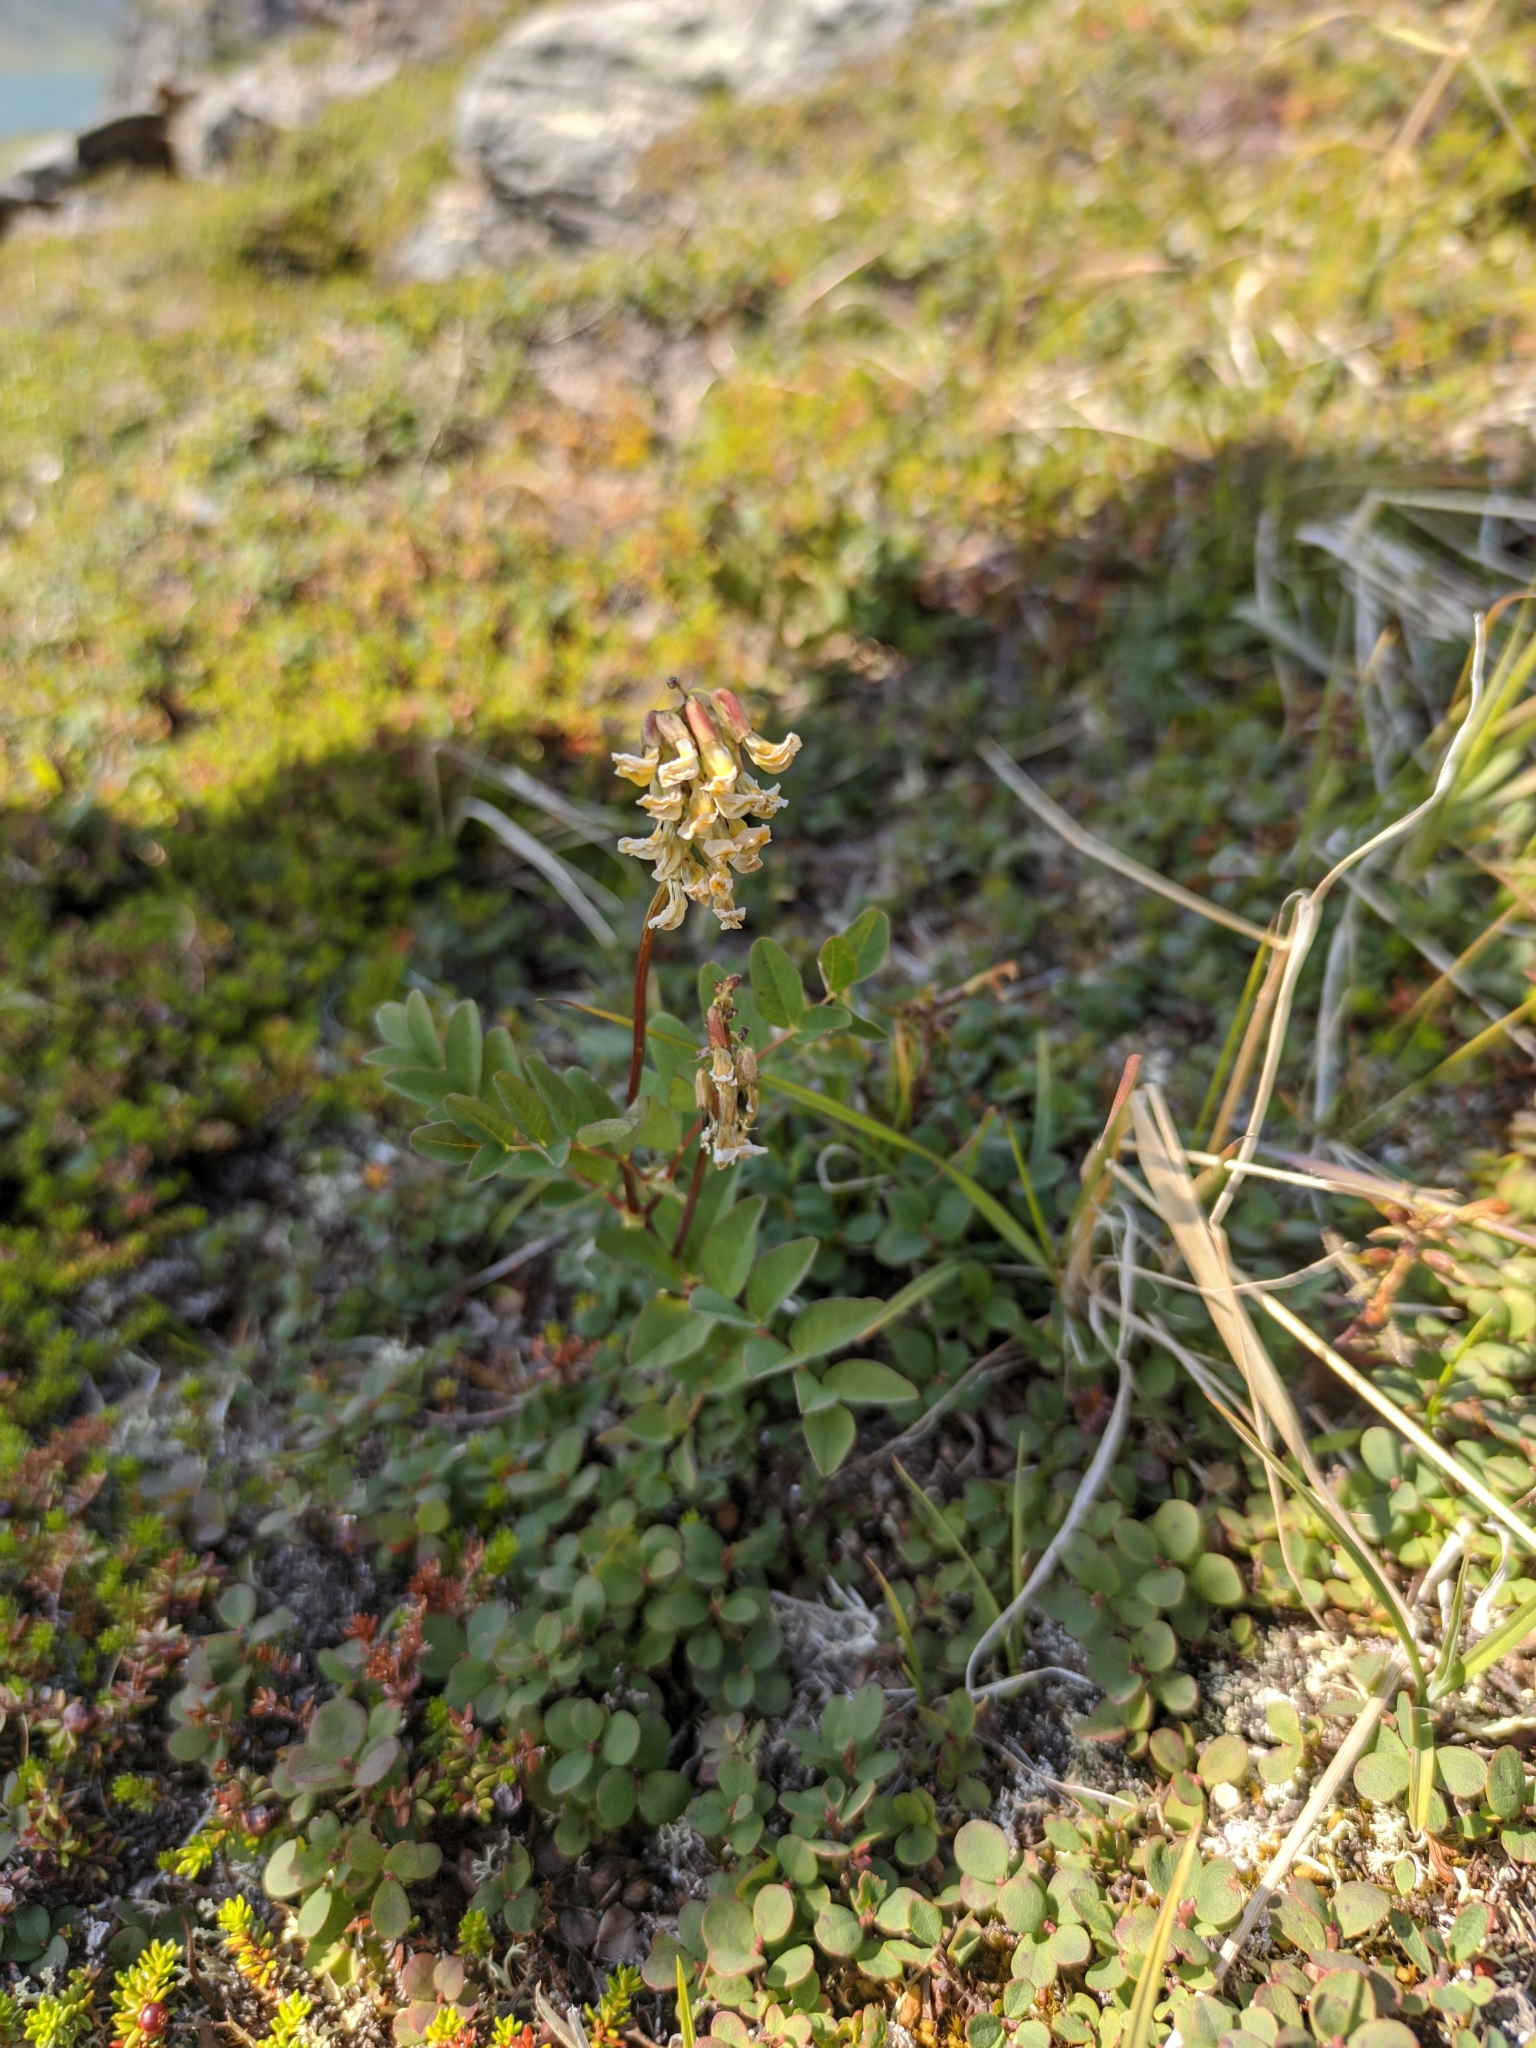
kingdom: Plantae
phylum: Tracheophyta
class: Magnoliopsida
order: Fabales
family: Fabaceae
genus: Astragalus
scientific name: Astragalus frigidus
